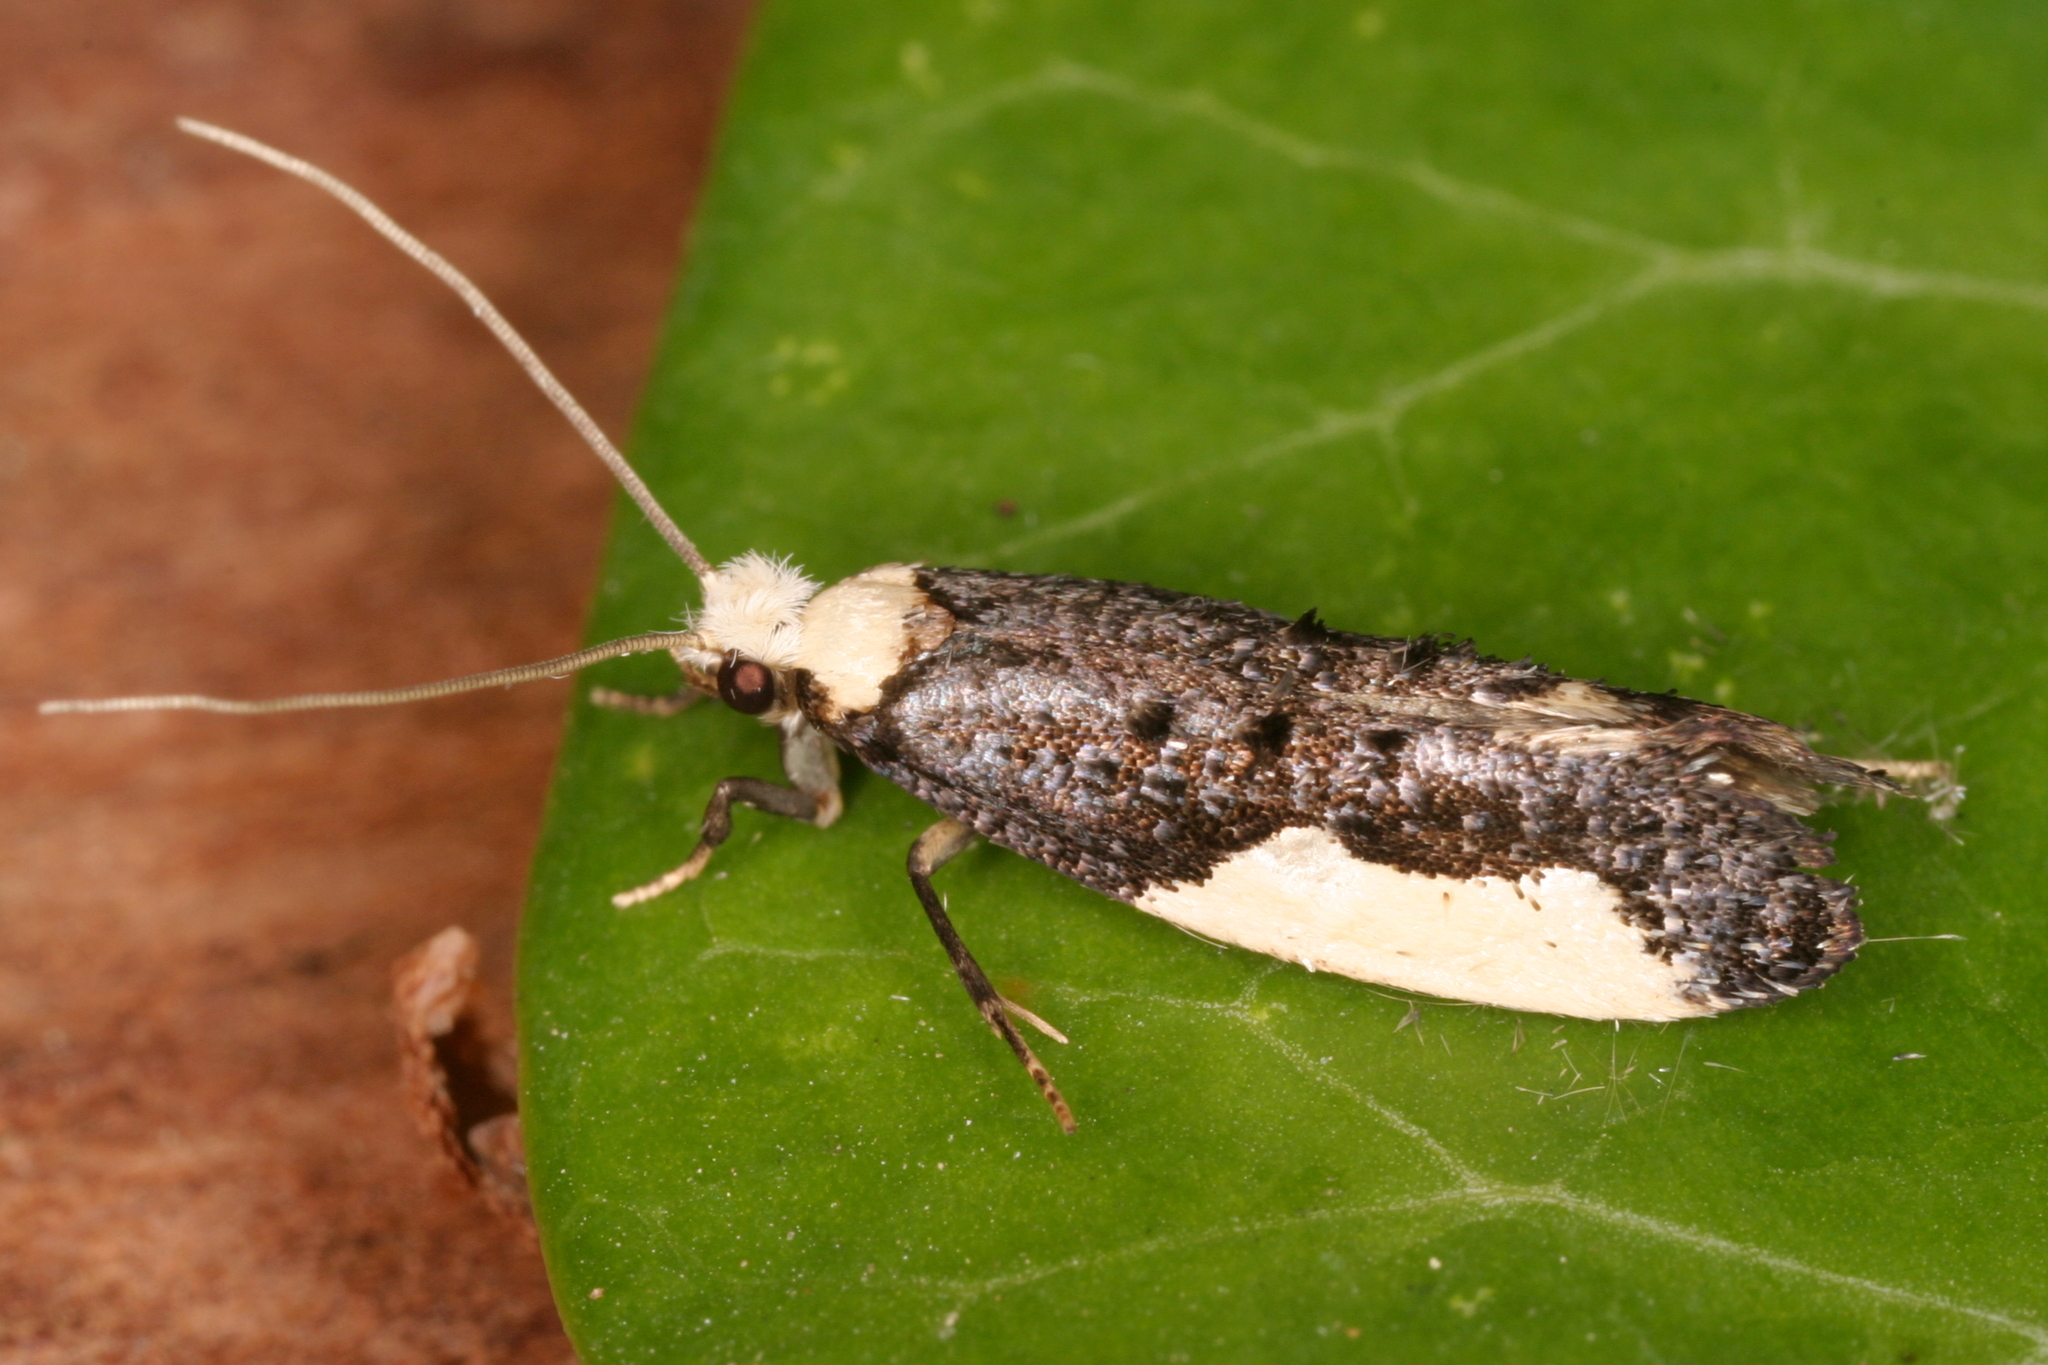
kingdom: Animalia
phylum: Arthropoda
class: Insecta
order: Lepidoptera
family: Tineidae
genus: Monopis
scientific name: Monopis monachella
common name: Moth
